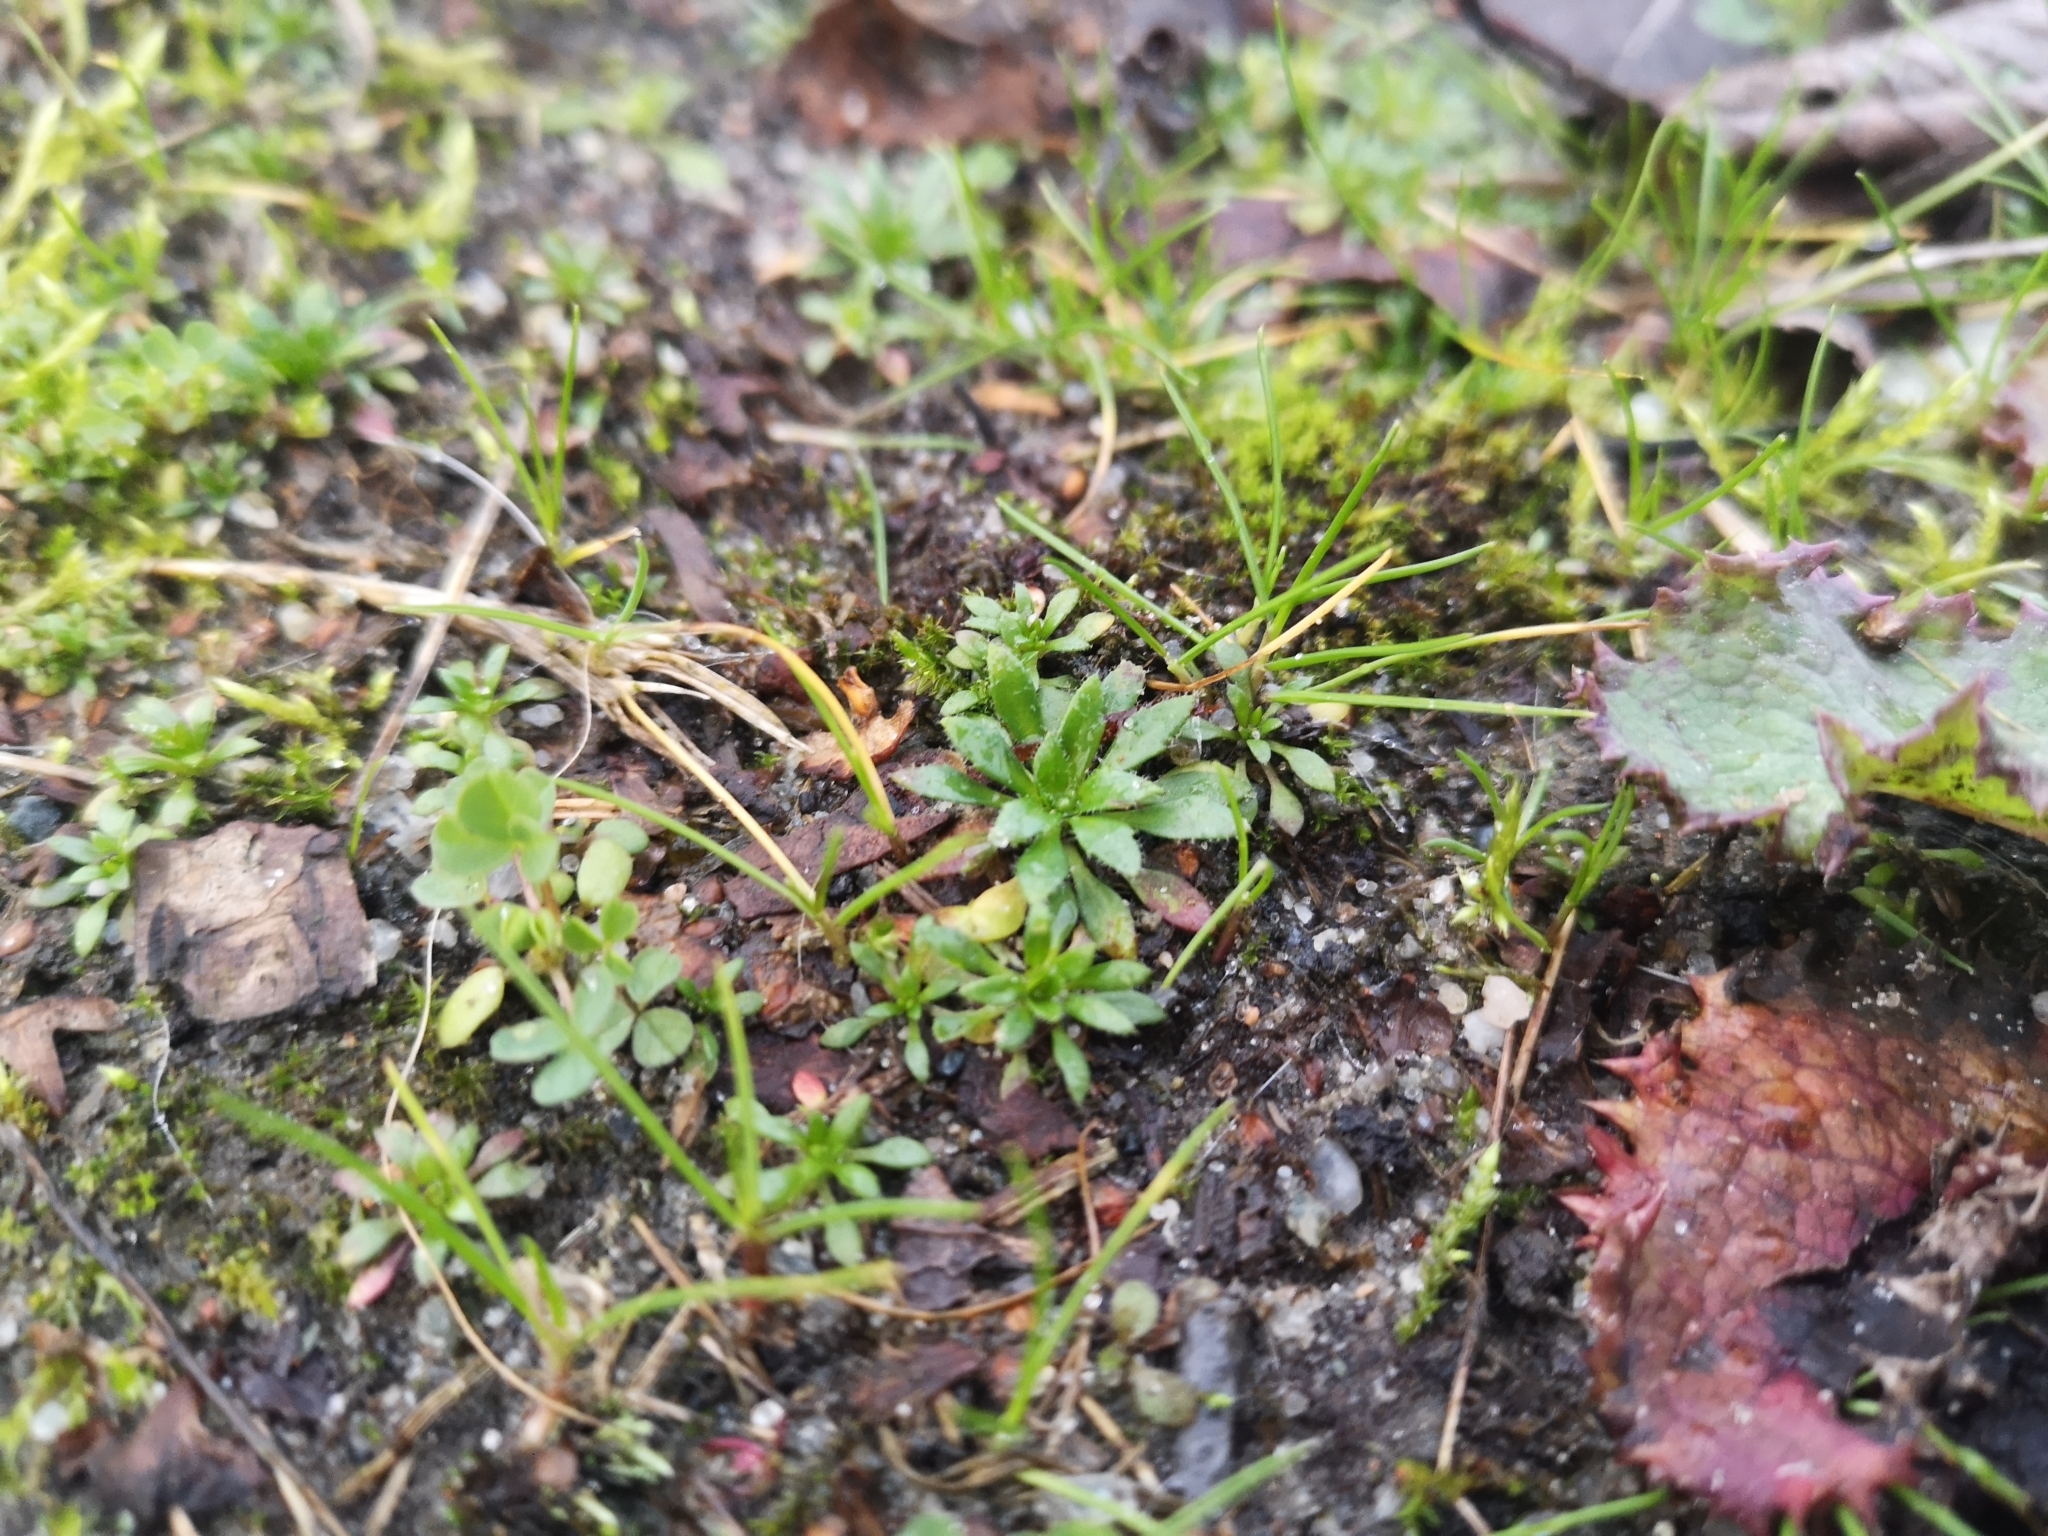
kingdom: Plantae
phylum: Tracheophyta
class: Magnoliopsida
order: Brassicales
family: Brassicaceae
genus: Draba
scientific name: Draba verna
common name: Spring draba
